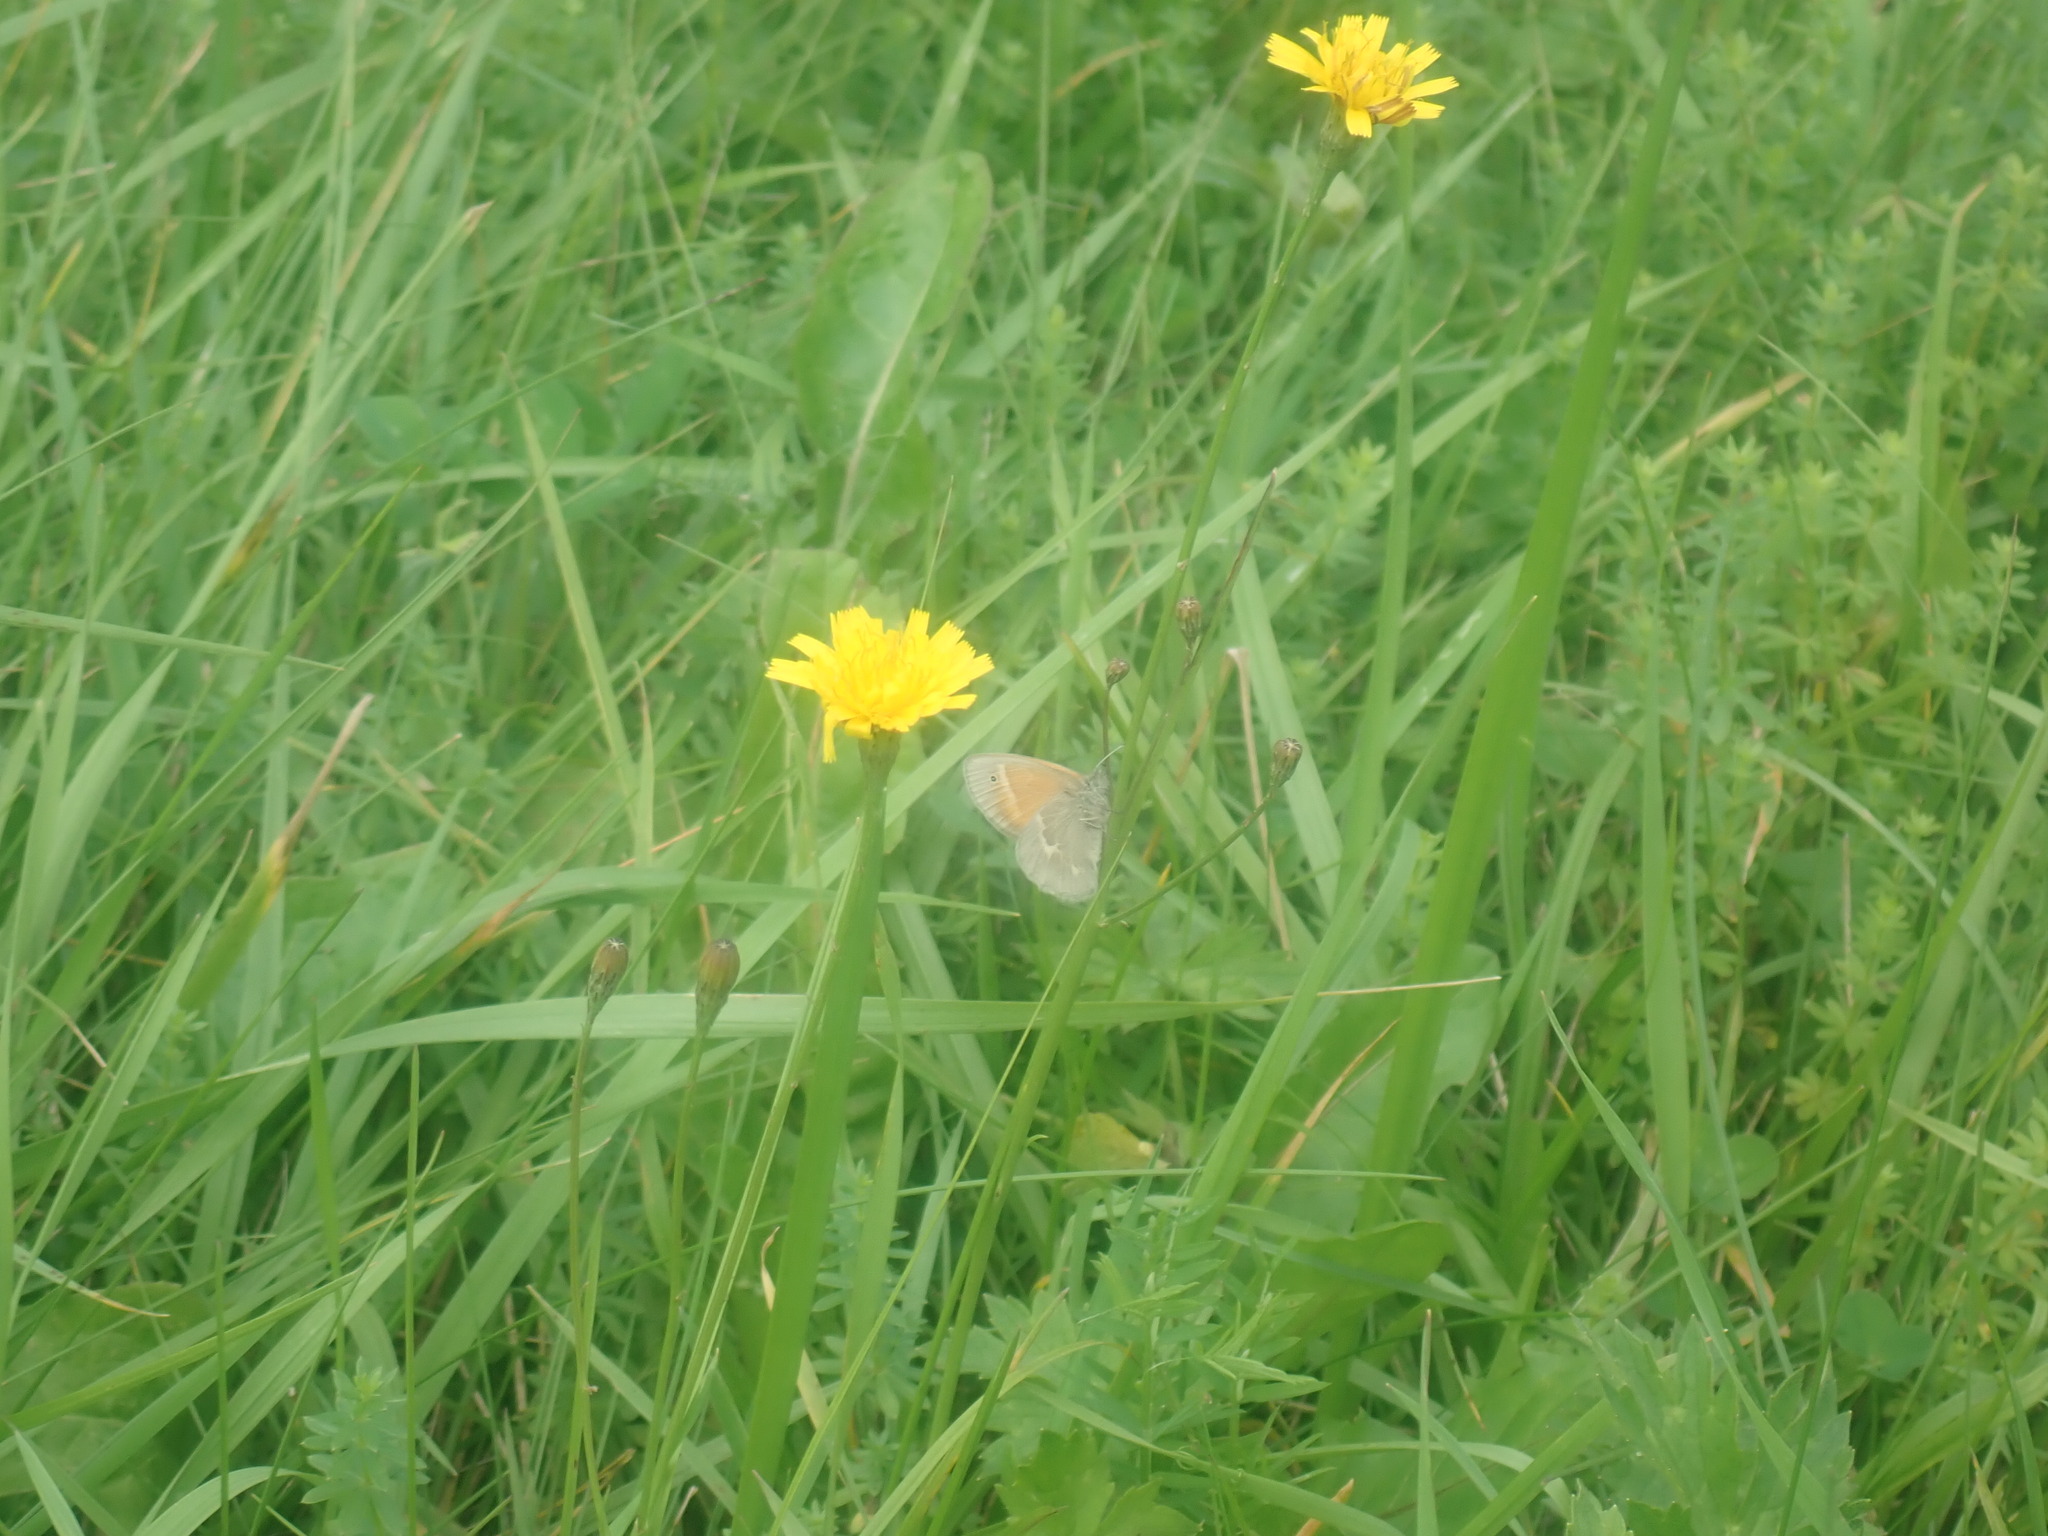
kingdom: Animalia
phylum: Arthropoda
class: Insecta
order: Lepidoptera
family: Nymphalidae
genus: Coenonympha
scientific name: Coenonympha california
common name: Common ringlet
